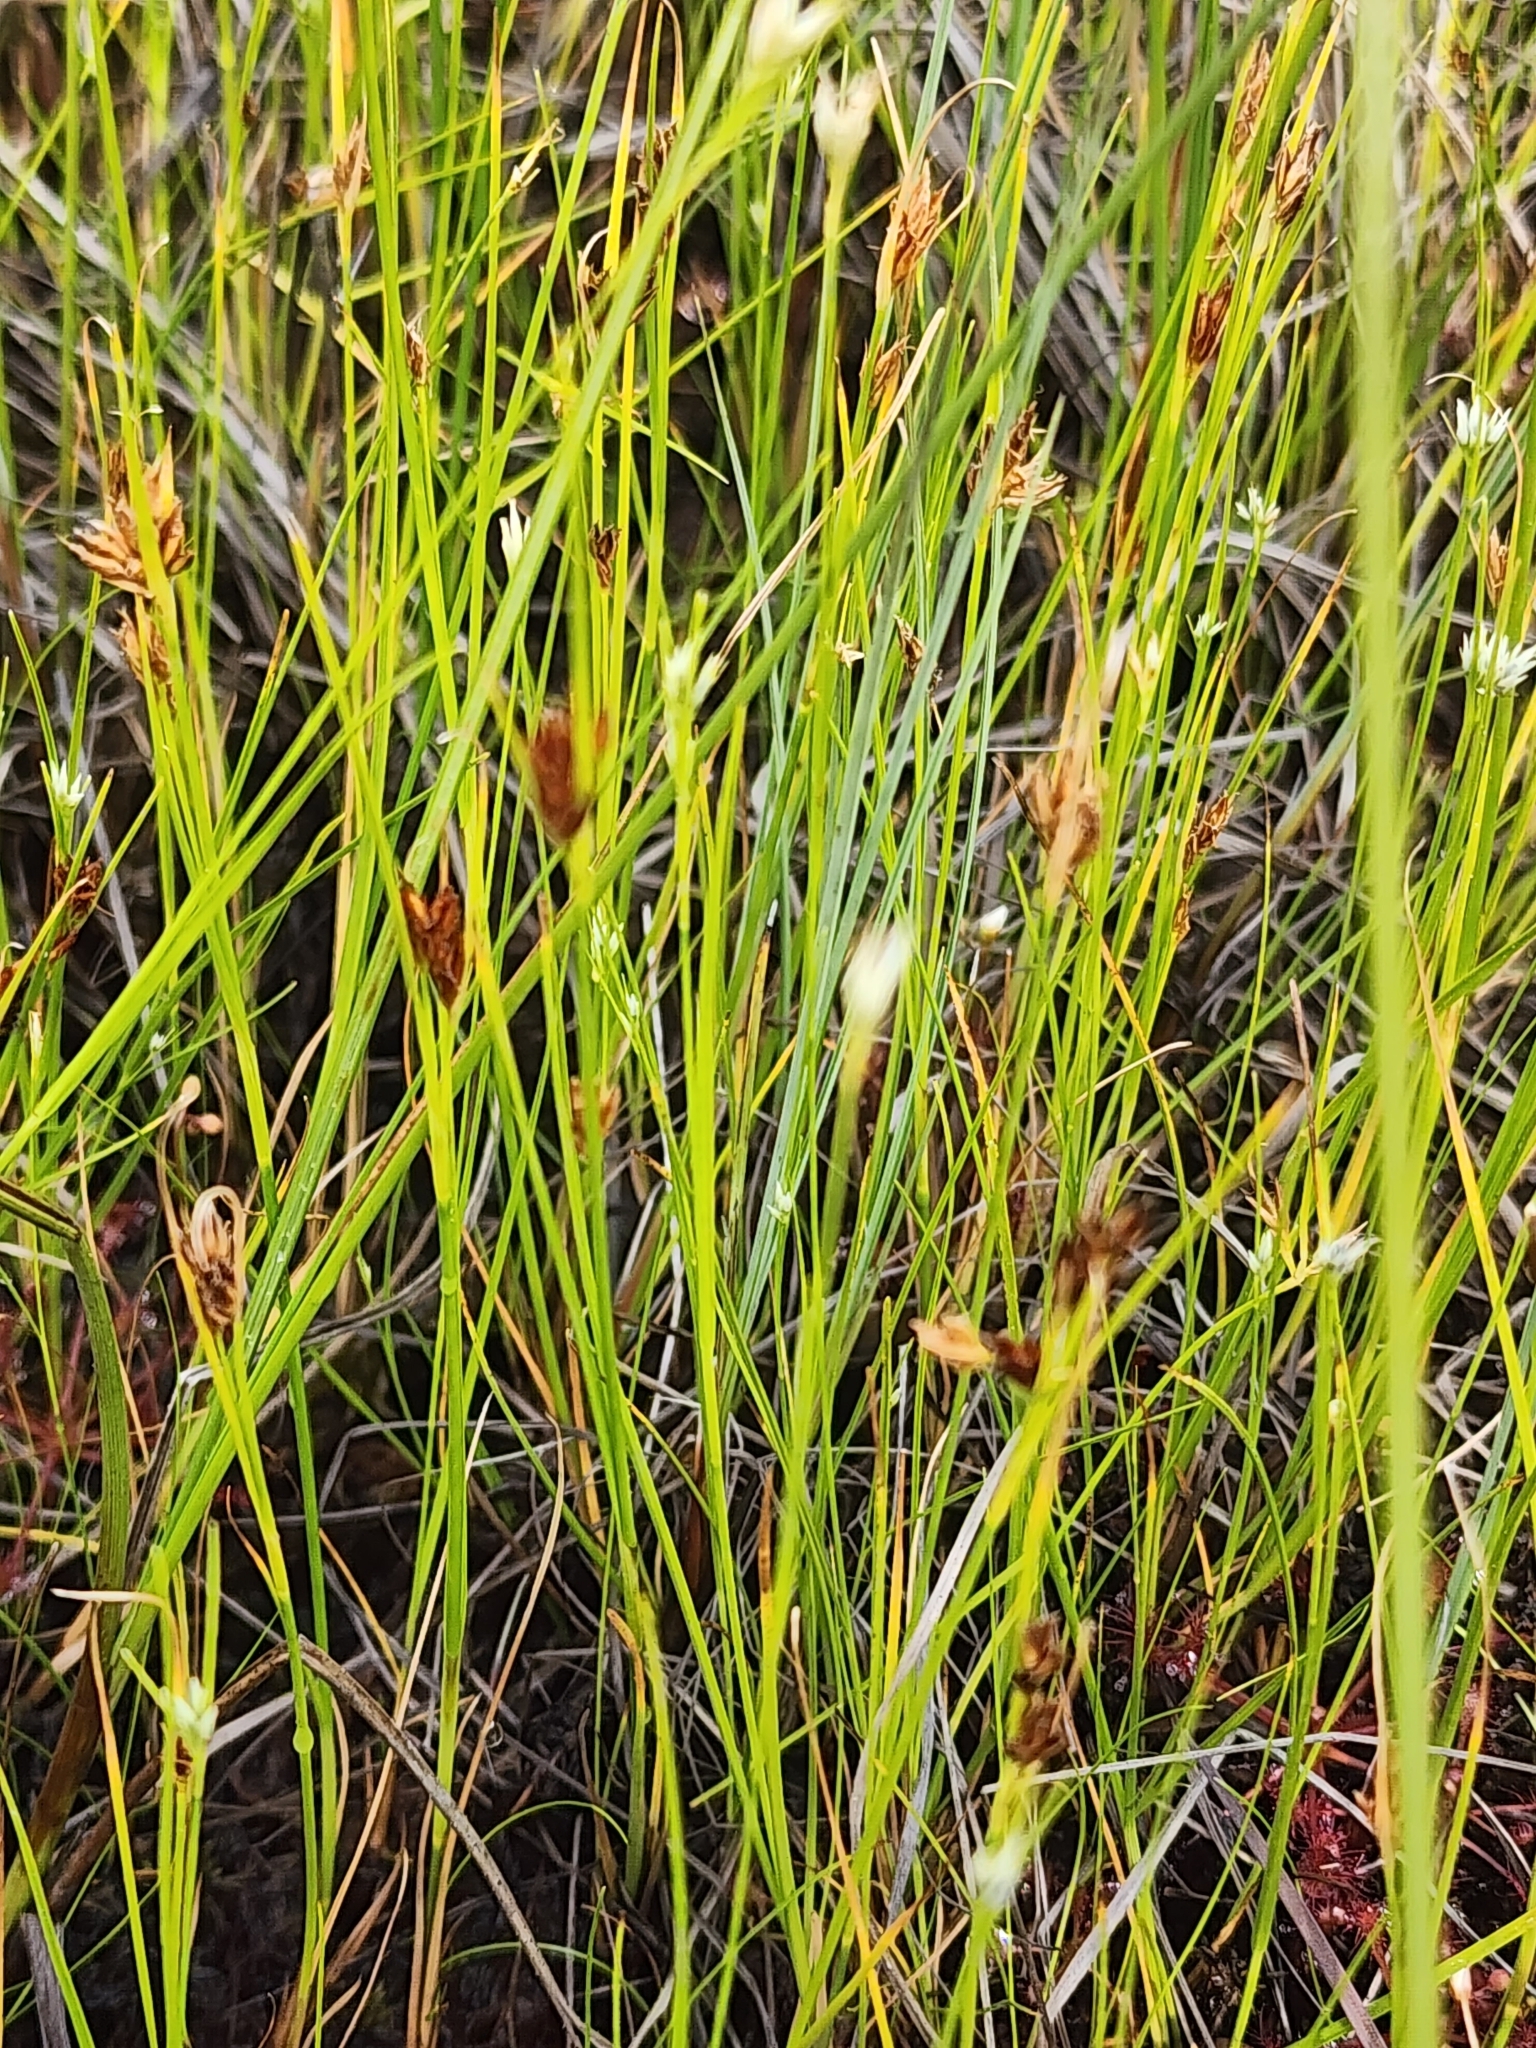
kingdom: Plantae
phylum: Tracheophyta
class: Liliopsida
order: Poales
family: Cyperaceae
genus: Rhynchospora
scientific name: Rhynchospora fusca
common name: Brown beak-sedge
